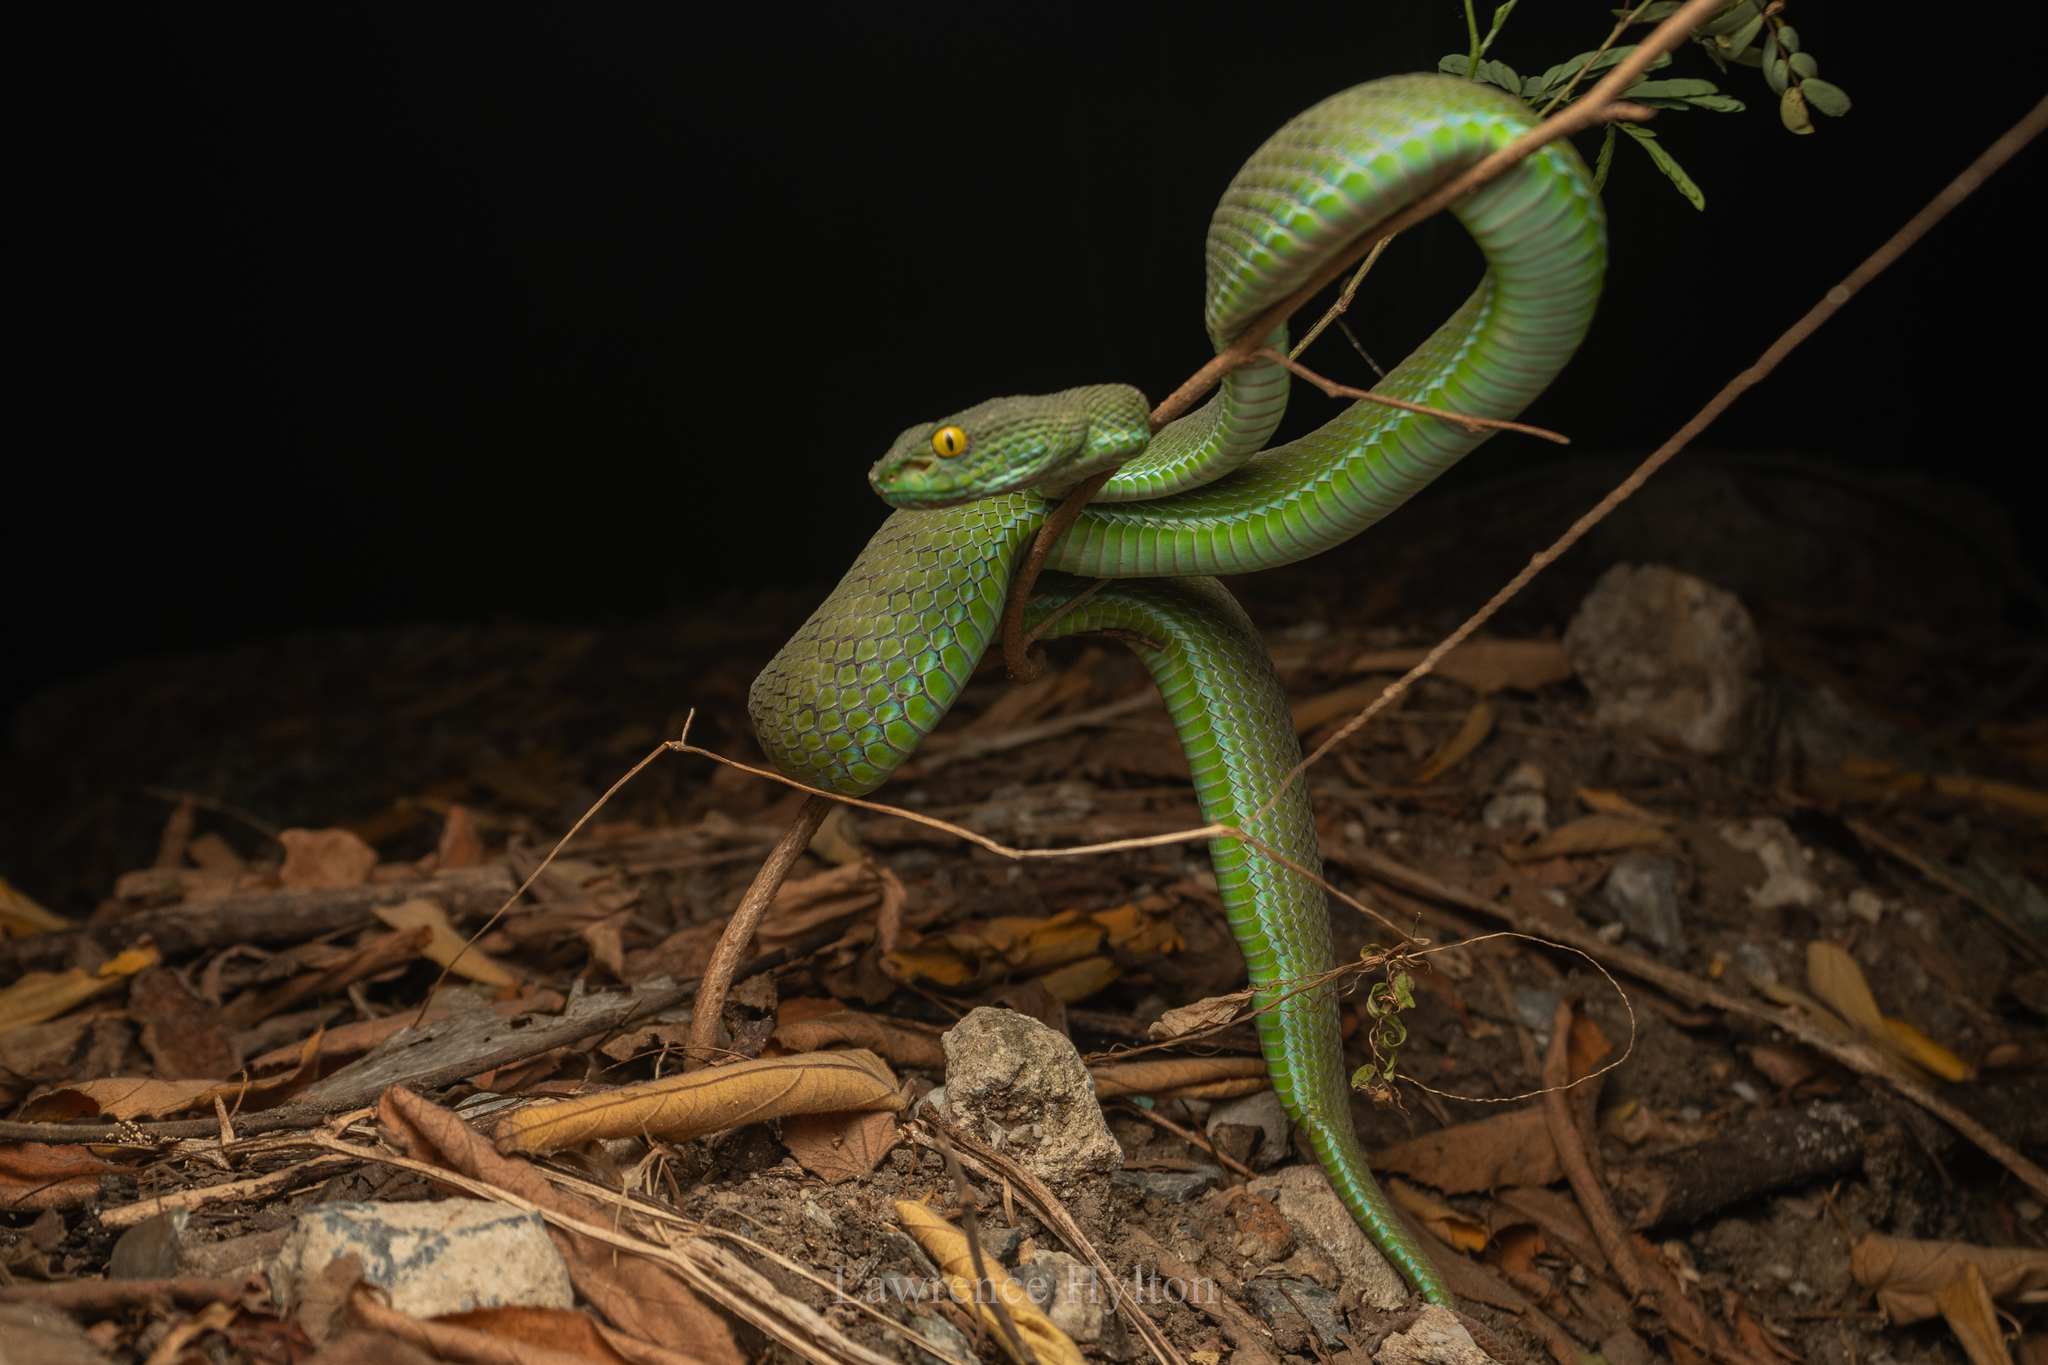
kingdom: Animalia
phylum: Chordata
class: Squamata
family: Viperidae
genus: Trimeresurus
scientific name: Trimeresurus macrops
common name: Kramer's pit viper
